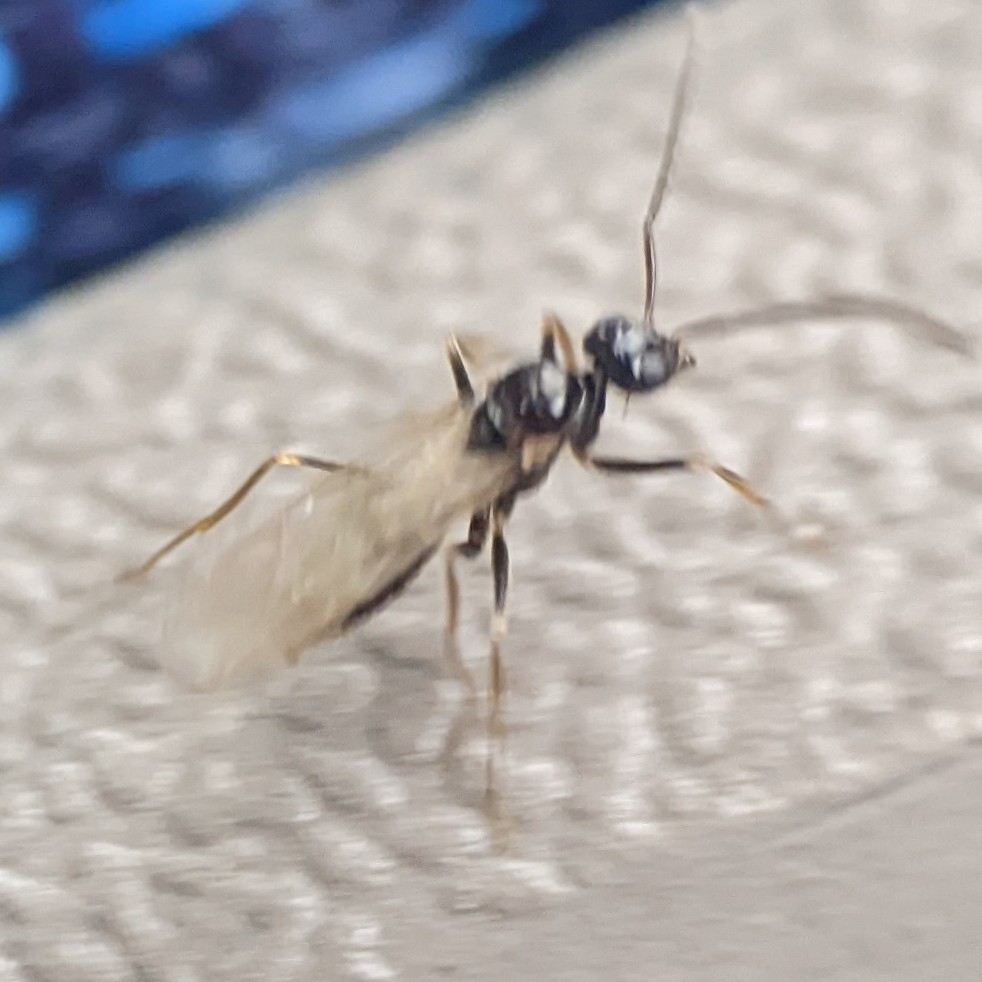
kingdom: Animalia
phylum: Arthropoda
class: Insecta
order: Hymenoptera
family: Formicidae
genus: Prenolepis
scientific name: Prenolepis imparis
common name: Small honey ant
